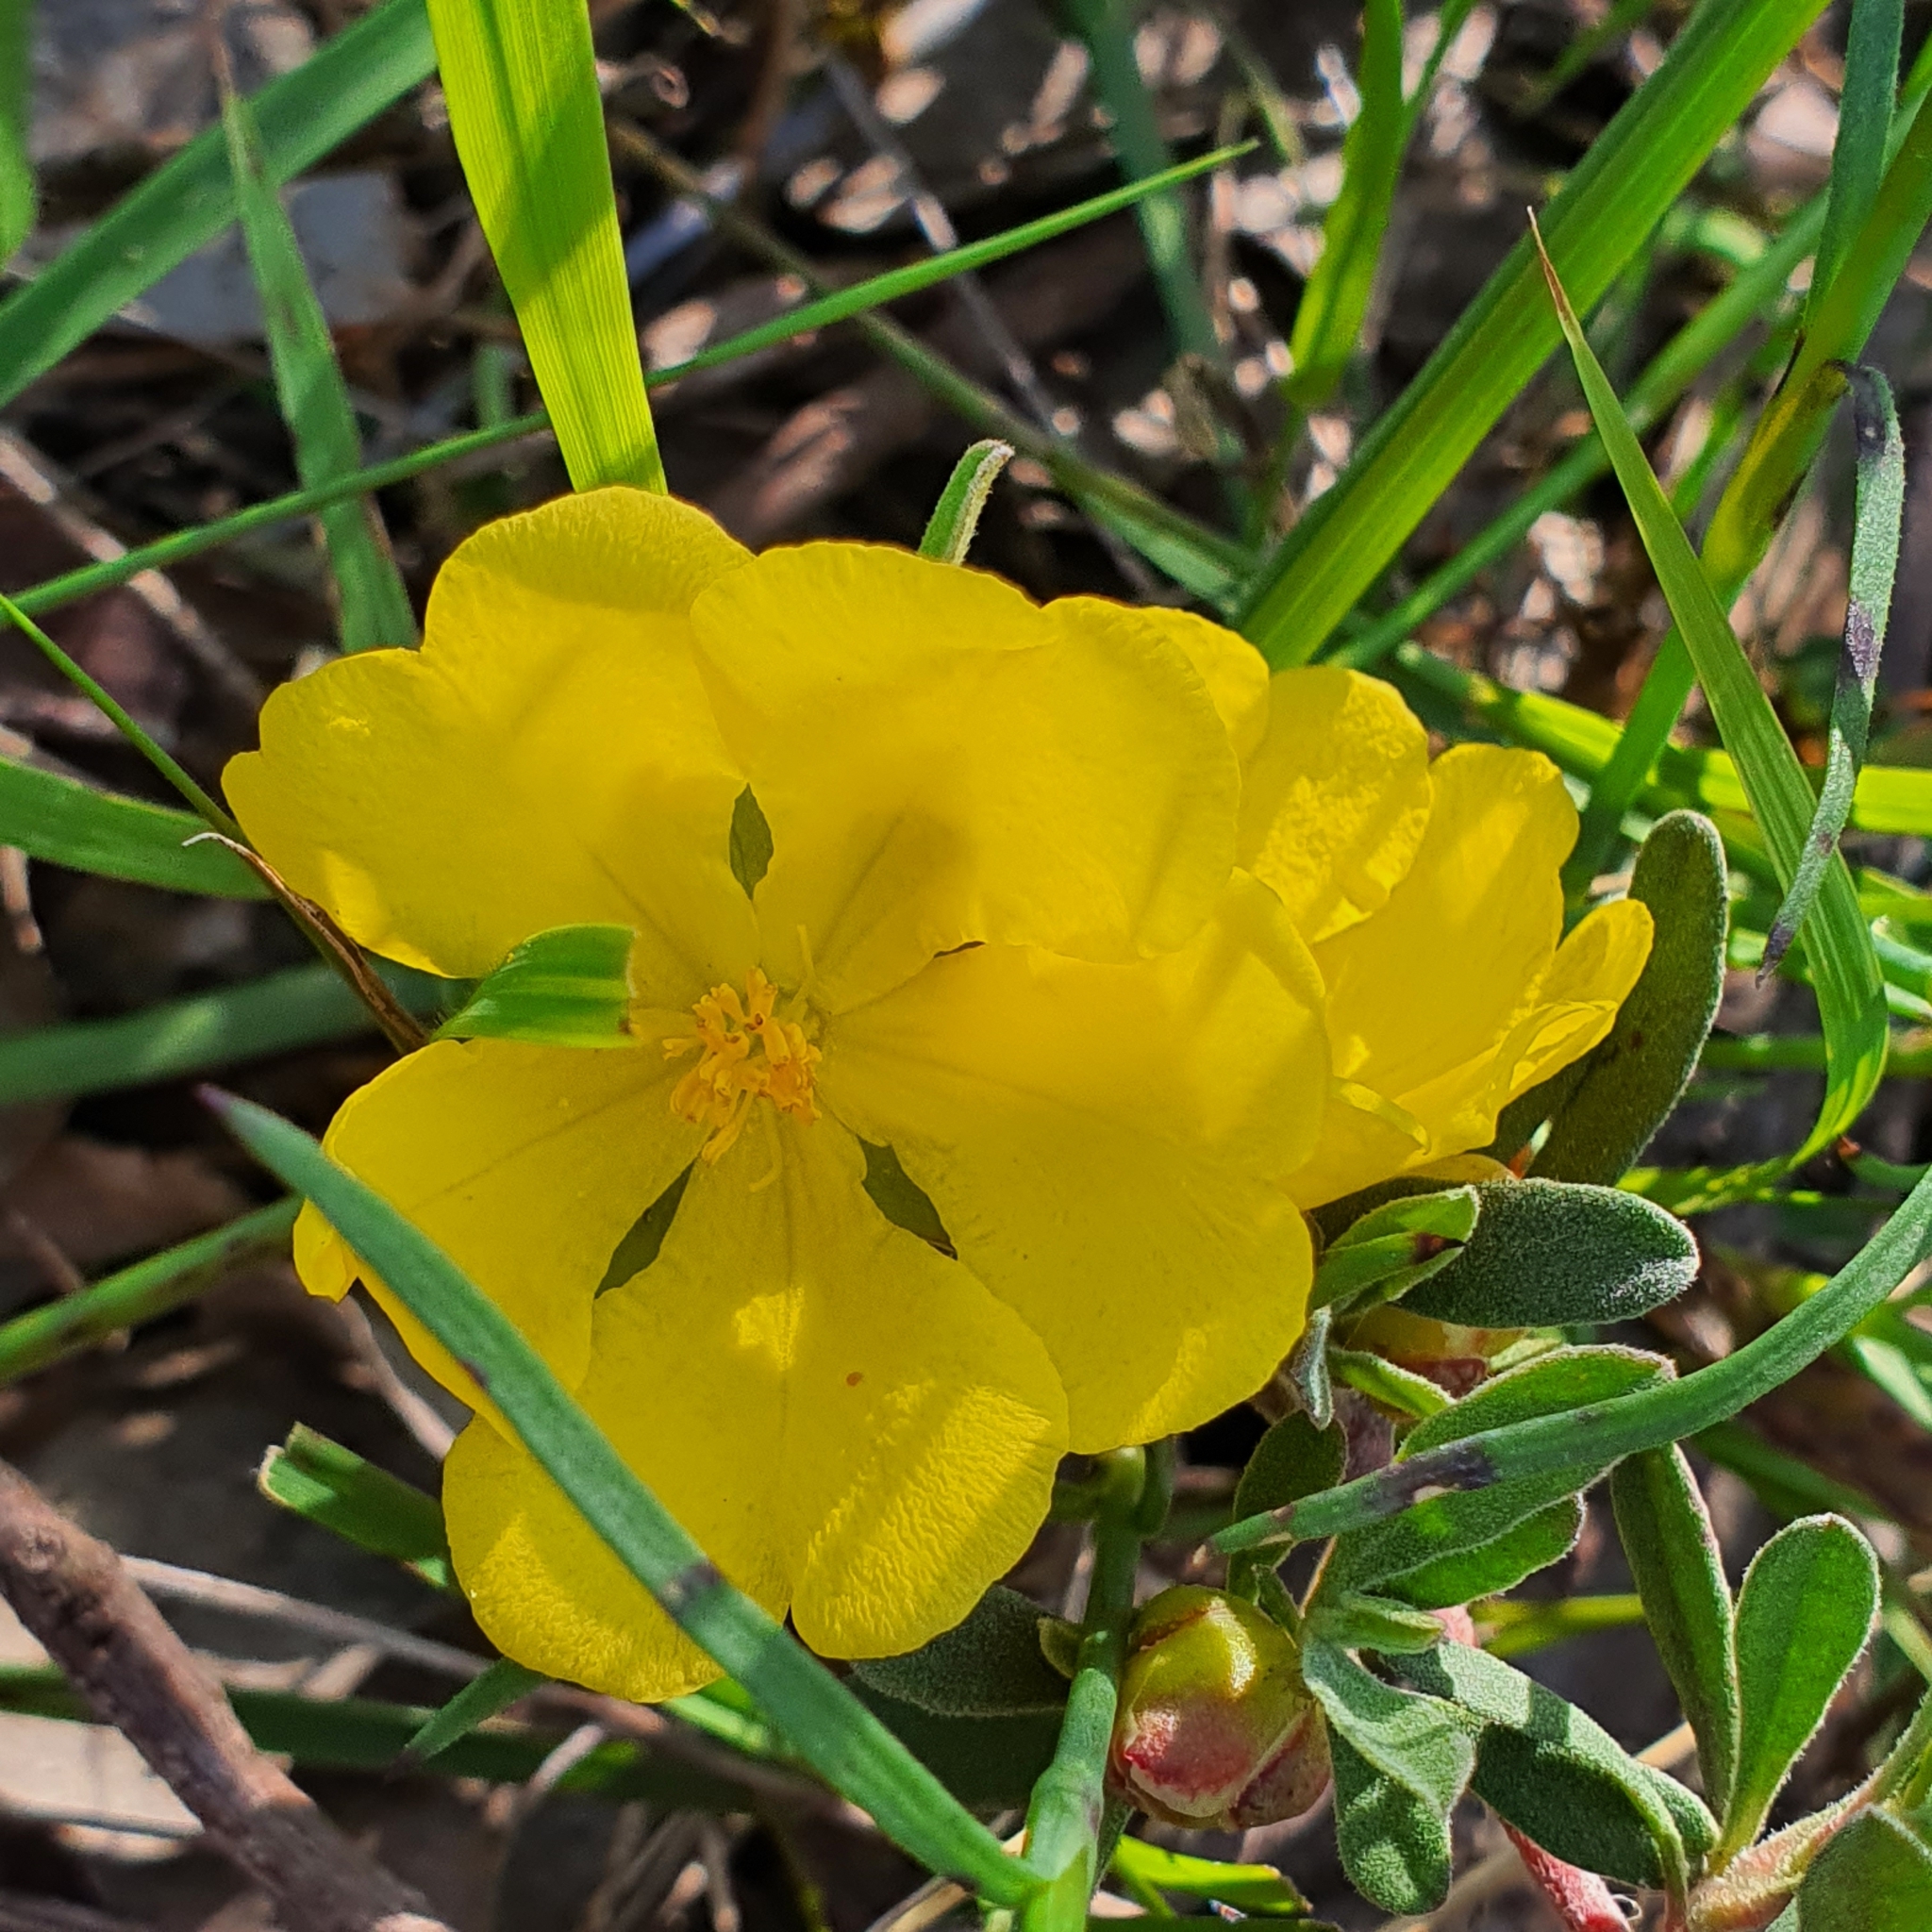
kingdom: Plantae
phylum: Tracheophyta
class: Magnoliopsida
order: Dilleniales
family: Dilleniaceae
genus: Hibbertia
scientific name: Hibbertia obtusifolia
